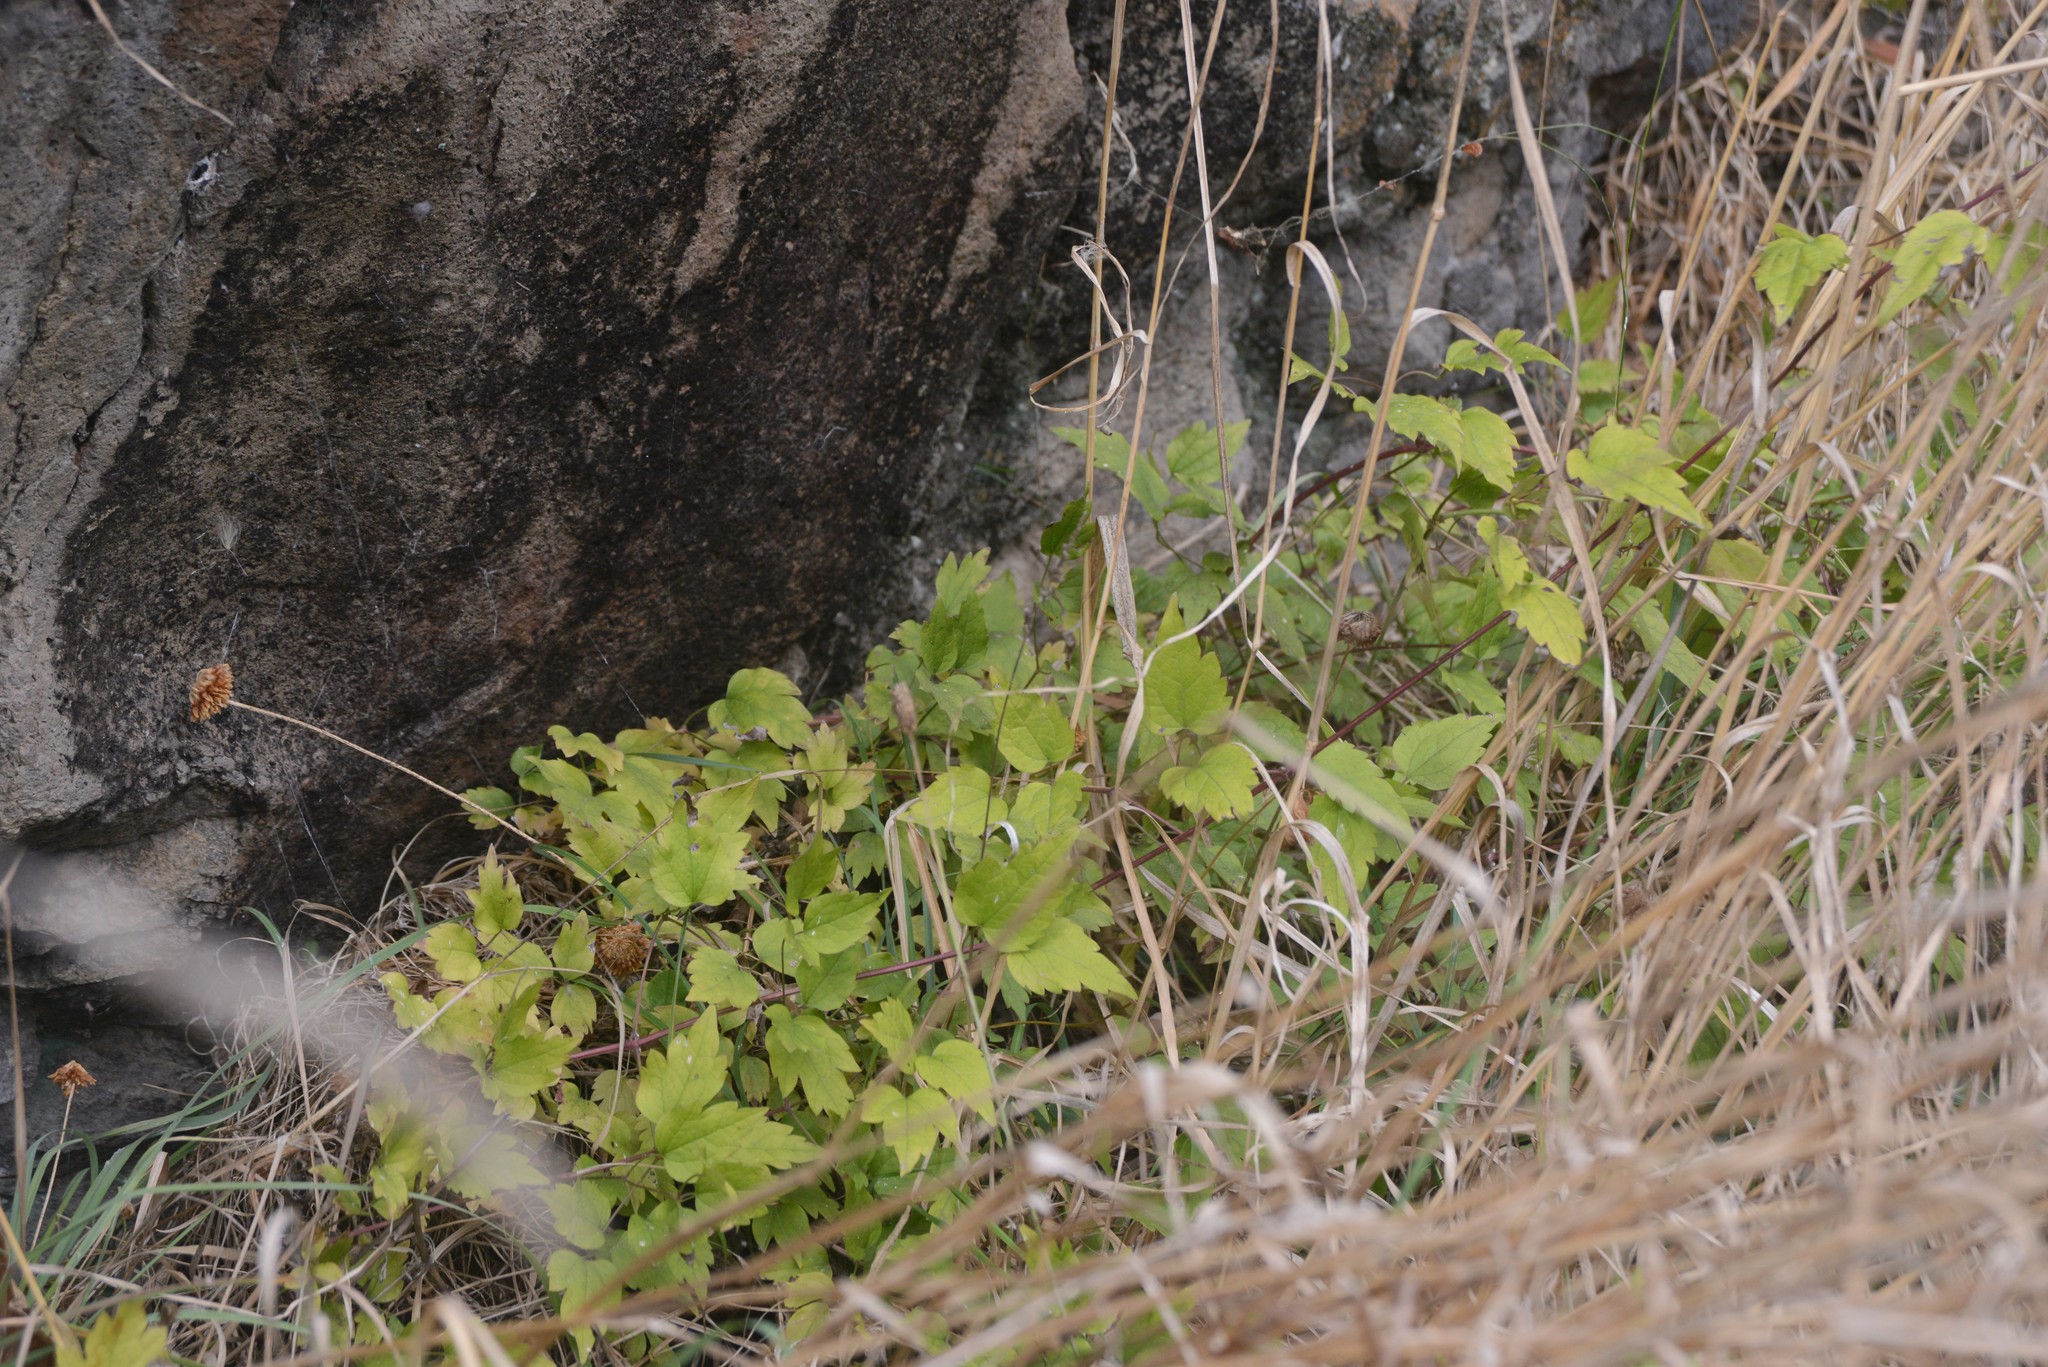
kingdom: Plantae
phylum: Tracheophyta
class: Magnoliopsida
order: Ranunculales
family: Ranunculaceae
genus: Clematis
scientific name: Clematis vitalba
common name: Evergreen clematis
